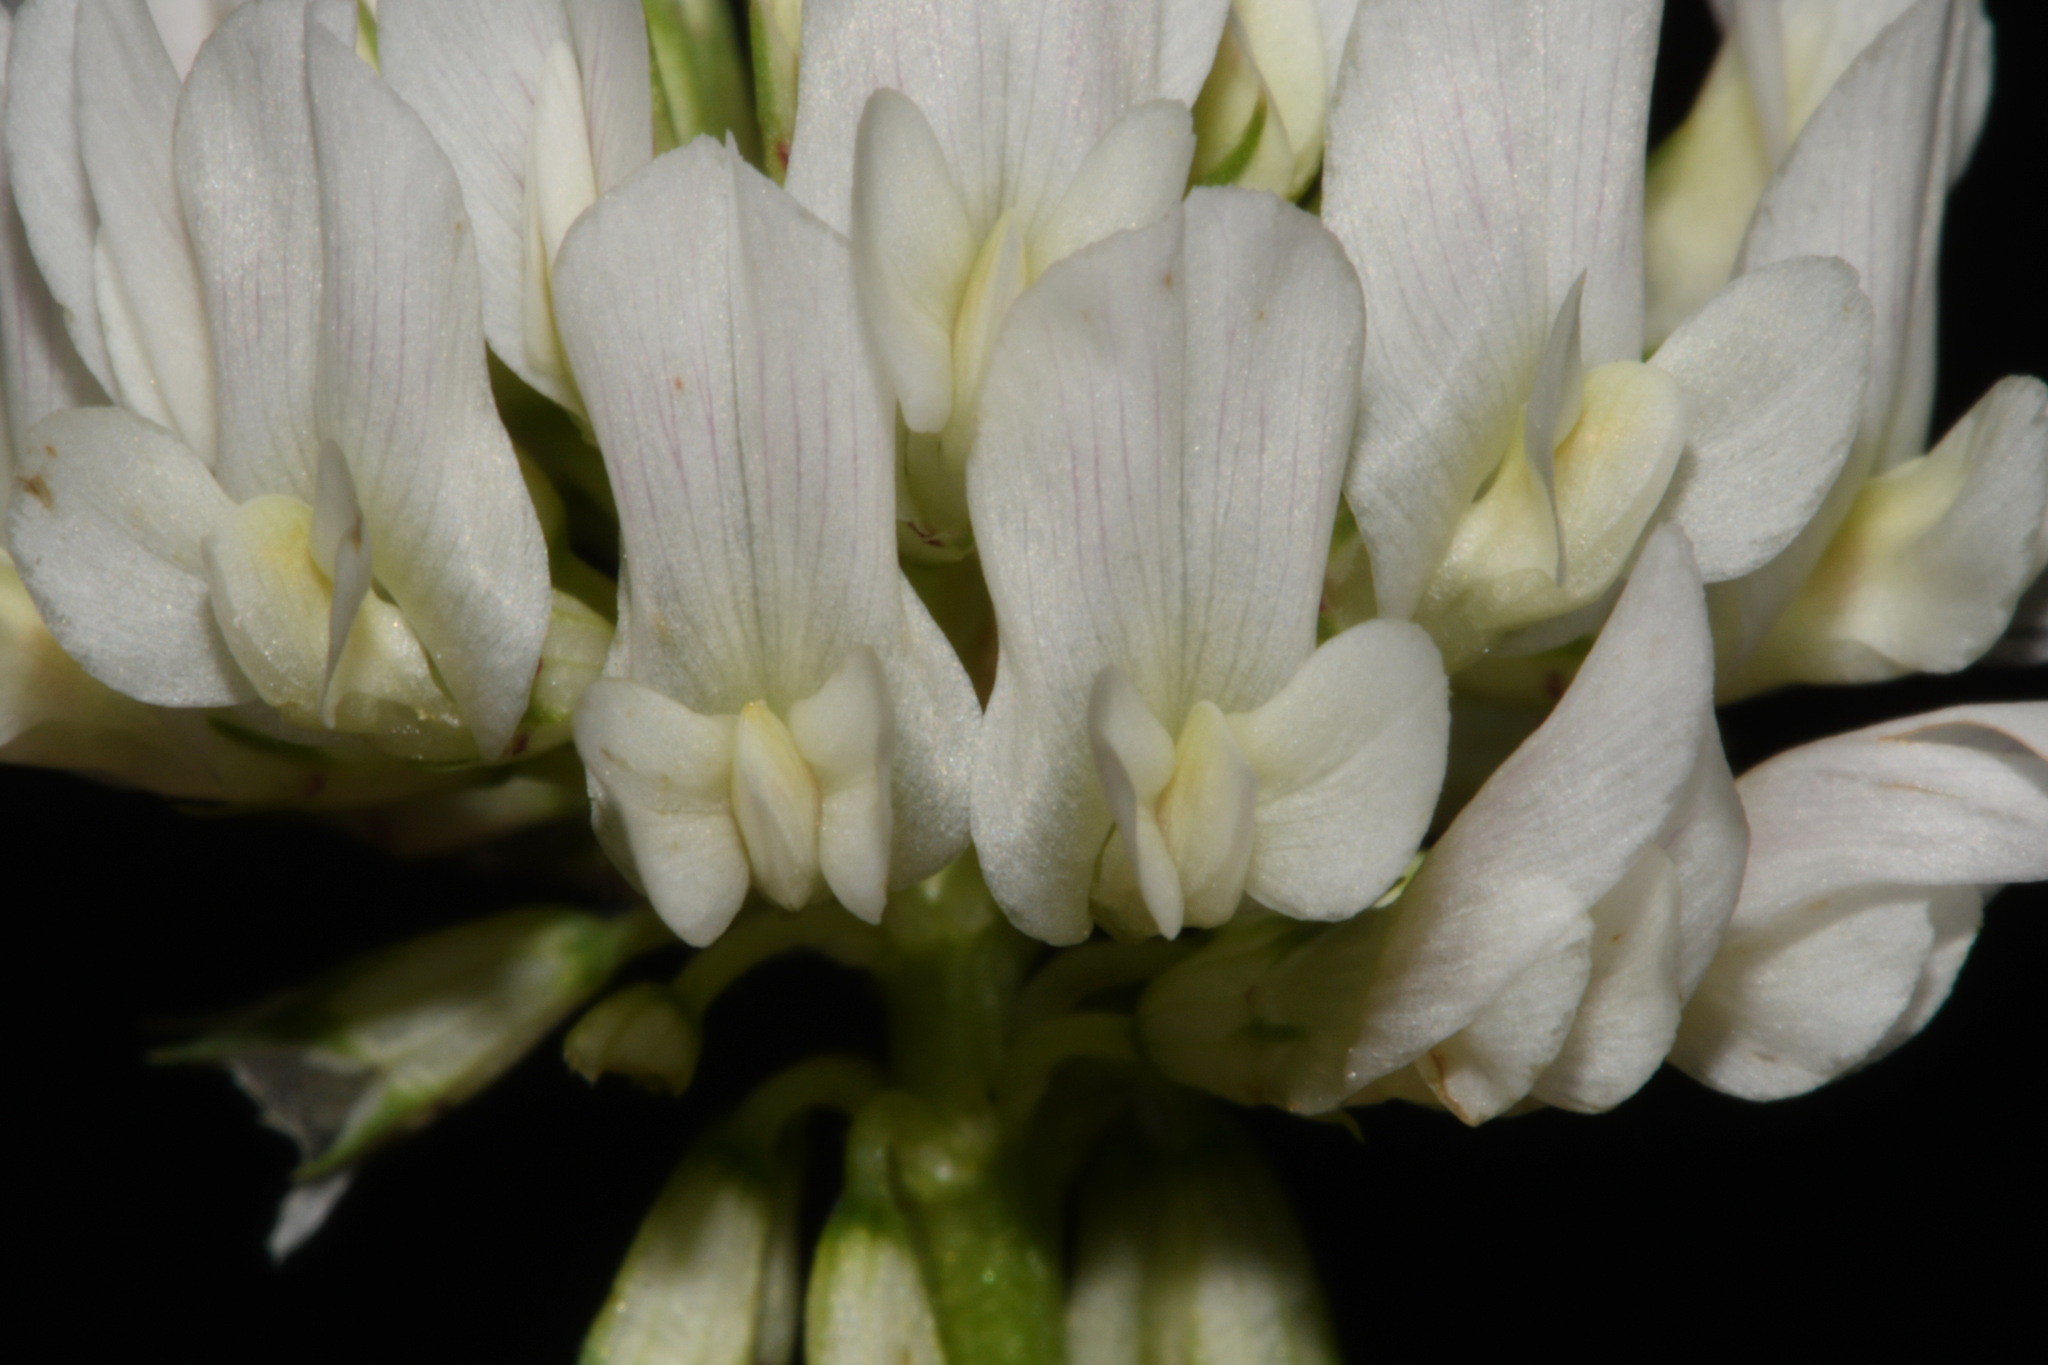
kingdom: Plantae
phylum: Tracheophyta
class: Magnoliopsida
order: Fabales
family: Fabaceae
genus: Trifolium
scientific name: Trifolium repens
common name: White clover
